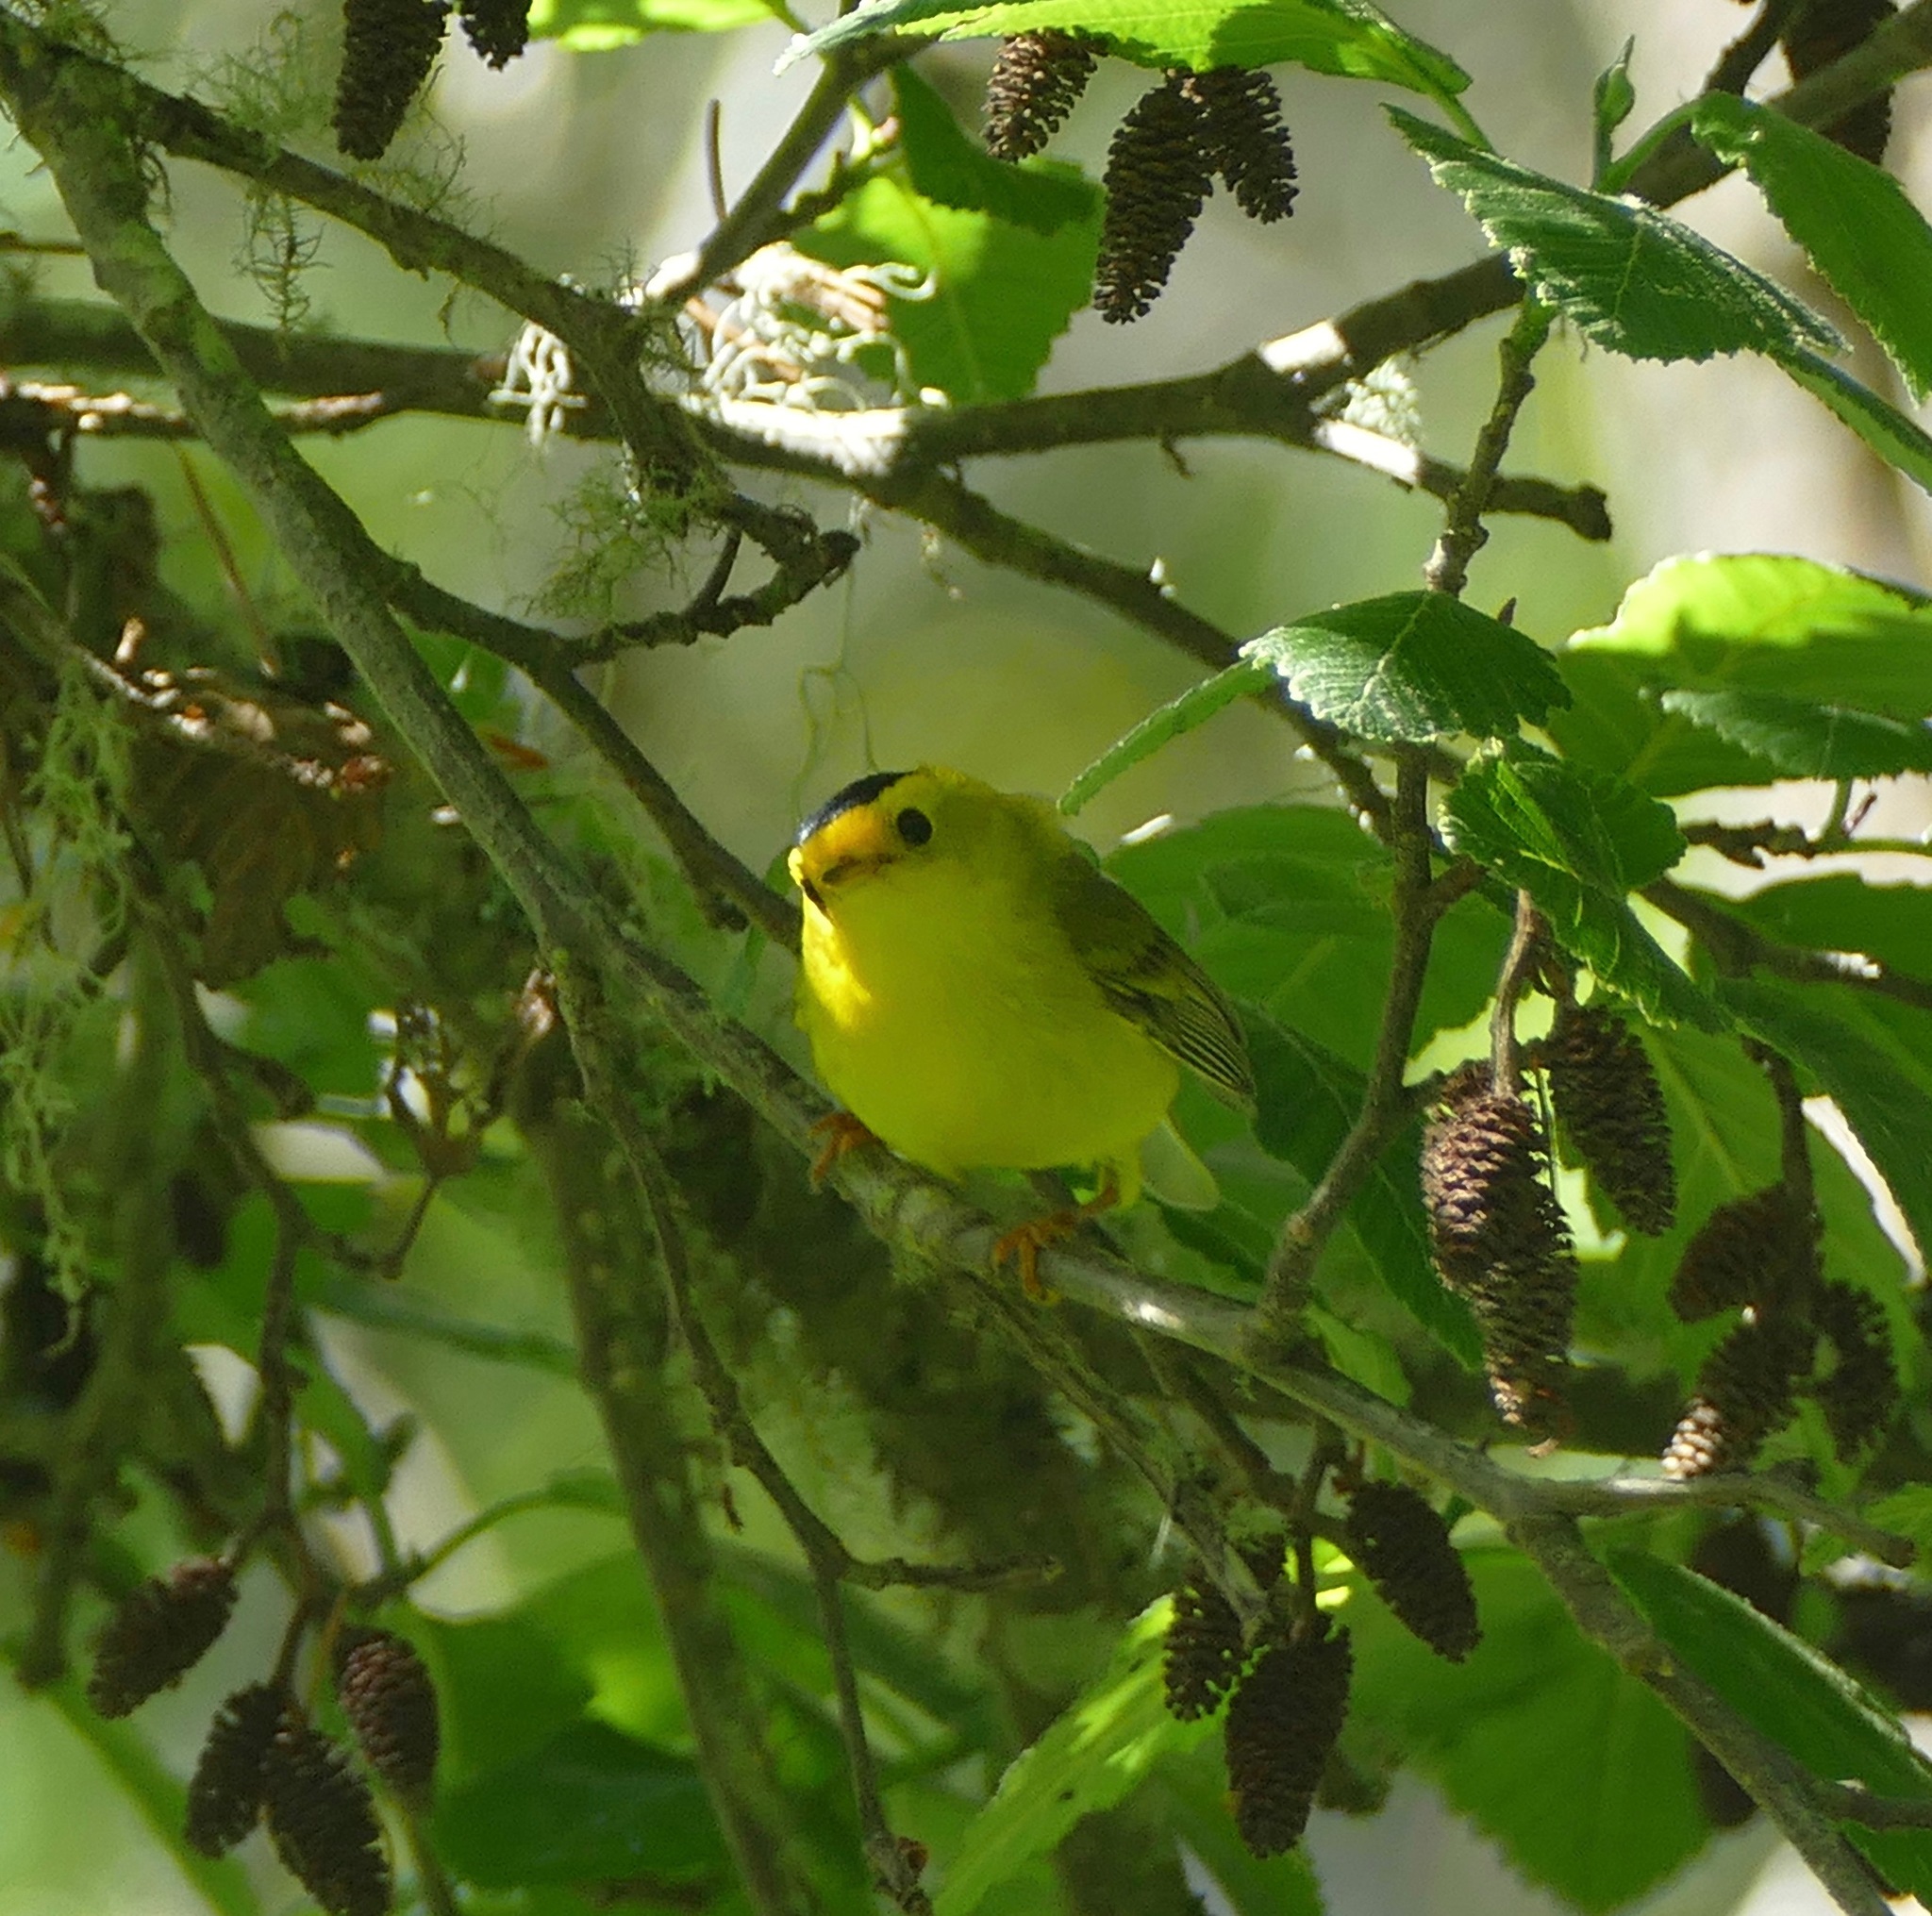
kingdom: Animalia
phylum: Chordata
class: Aves
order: Passeriformes
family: Parulidae
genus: Cardellina
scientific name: Cardellina pusilla
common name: Wilson's warbler
